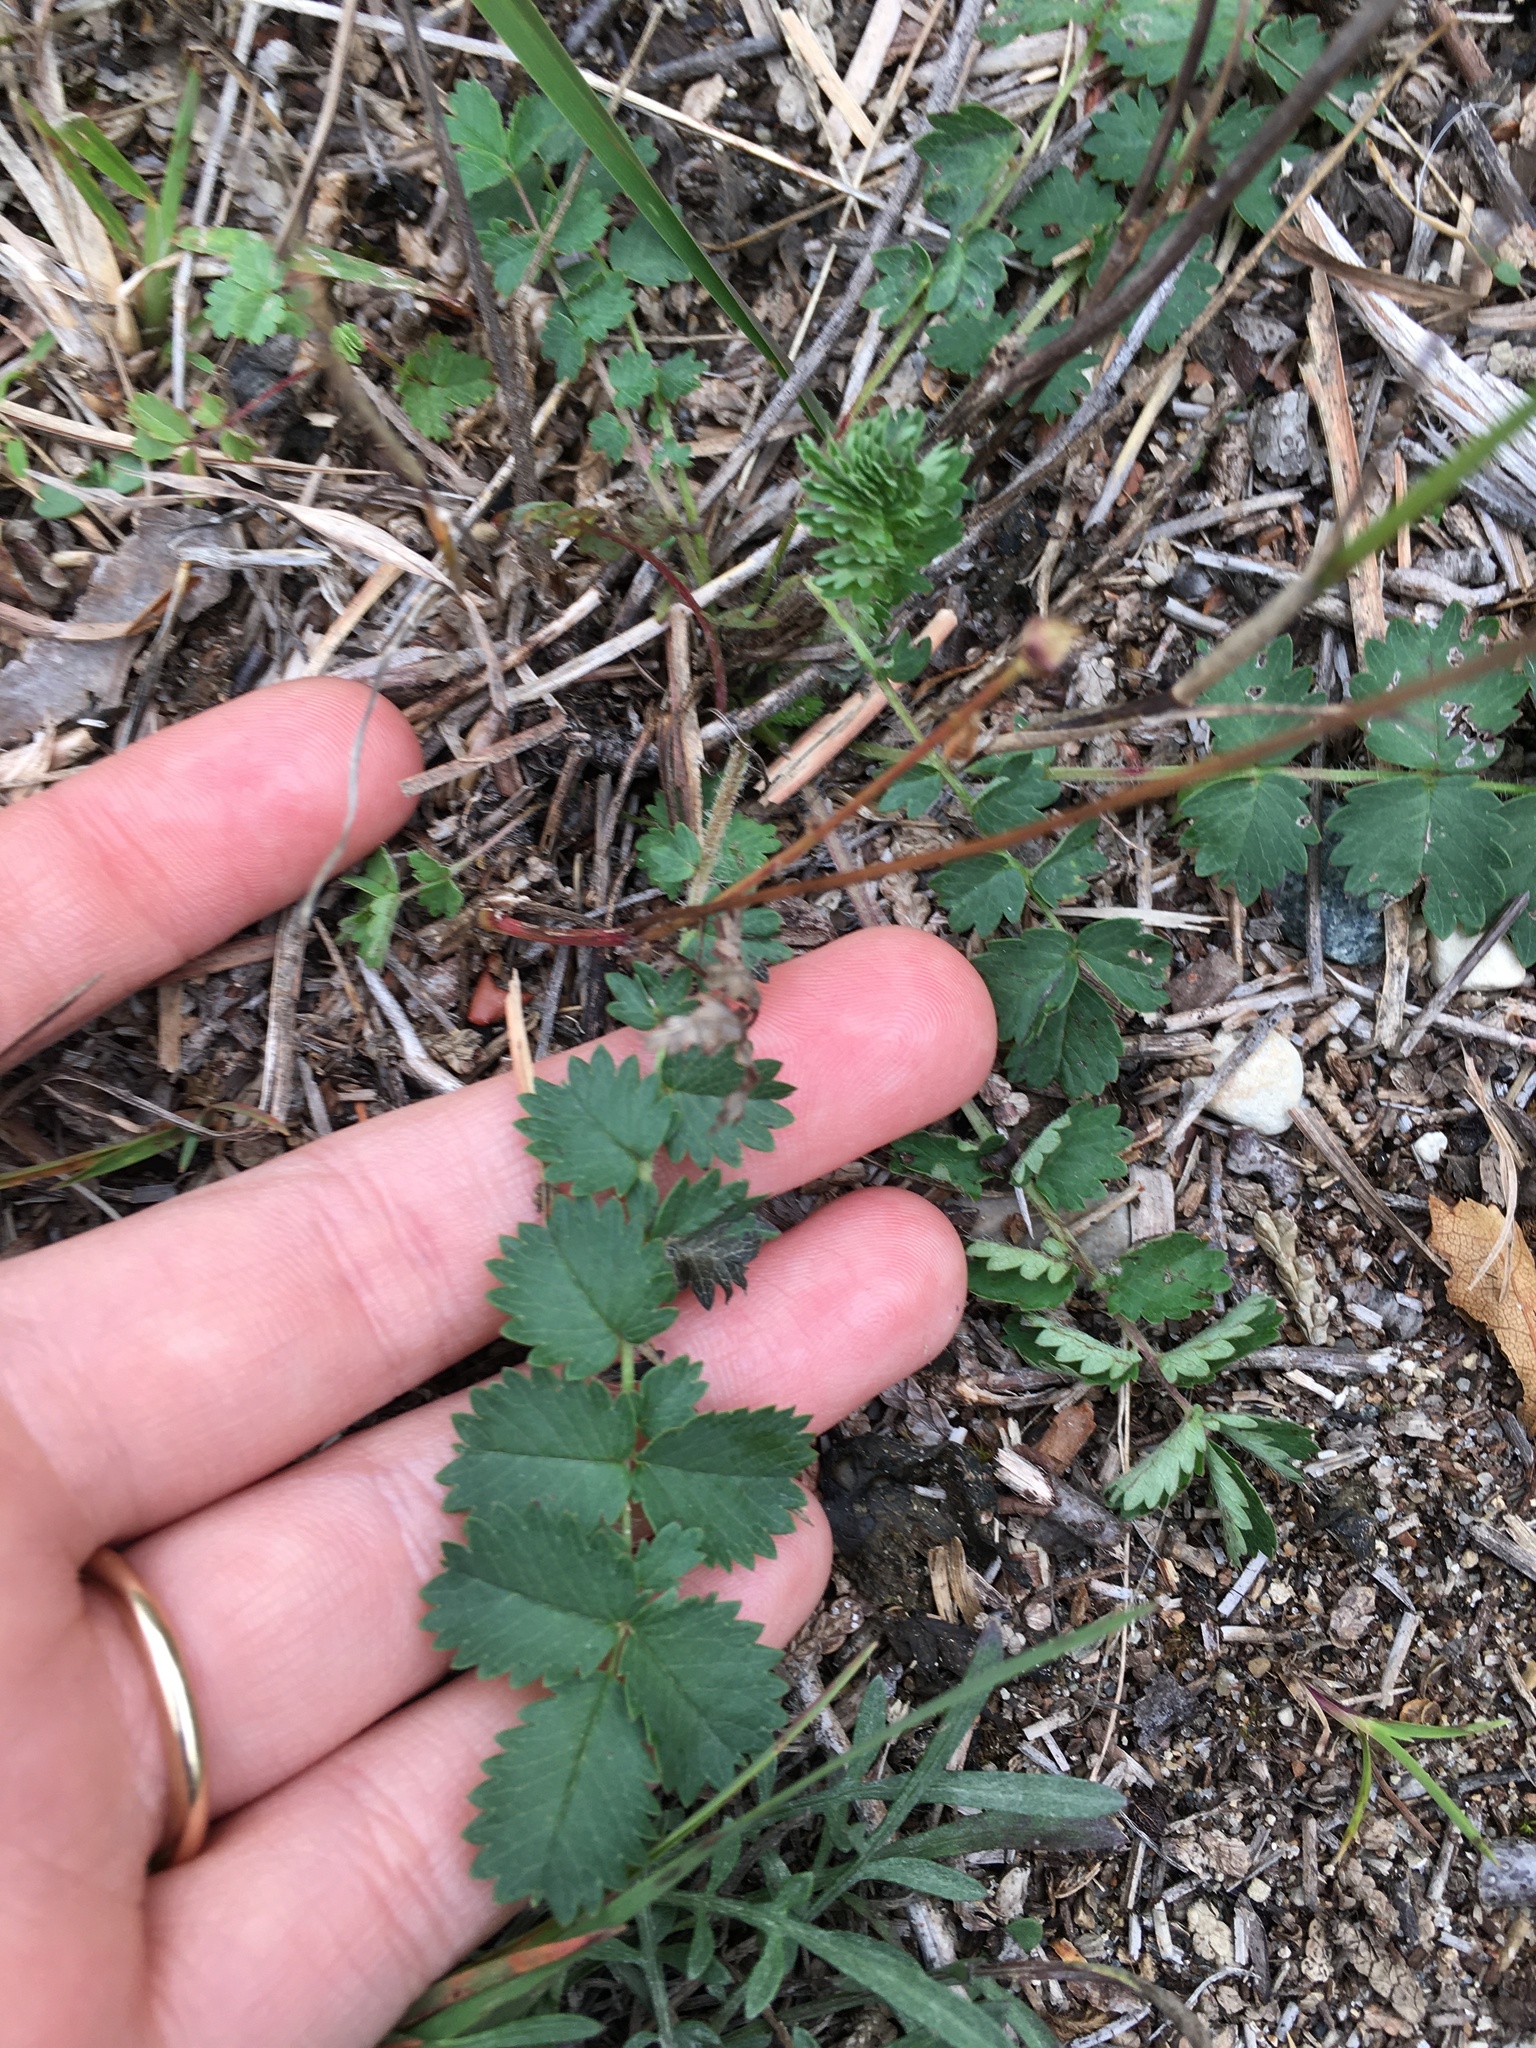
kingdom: Plantae
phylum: Tracheophyta
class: Magnoliopsida
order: Rosales
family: Rosaceae
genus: Poterium
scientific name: Poterium sanguisorba
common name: Salad burnet
